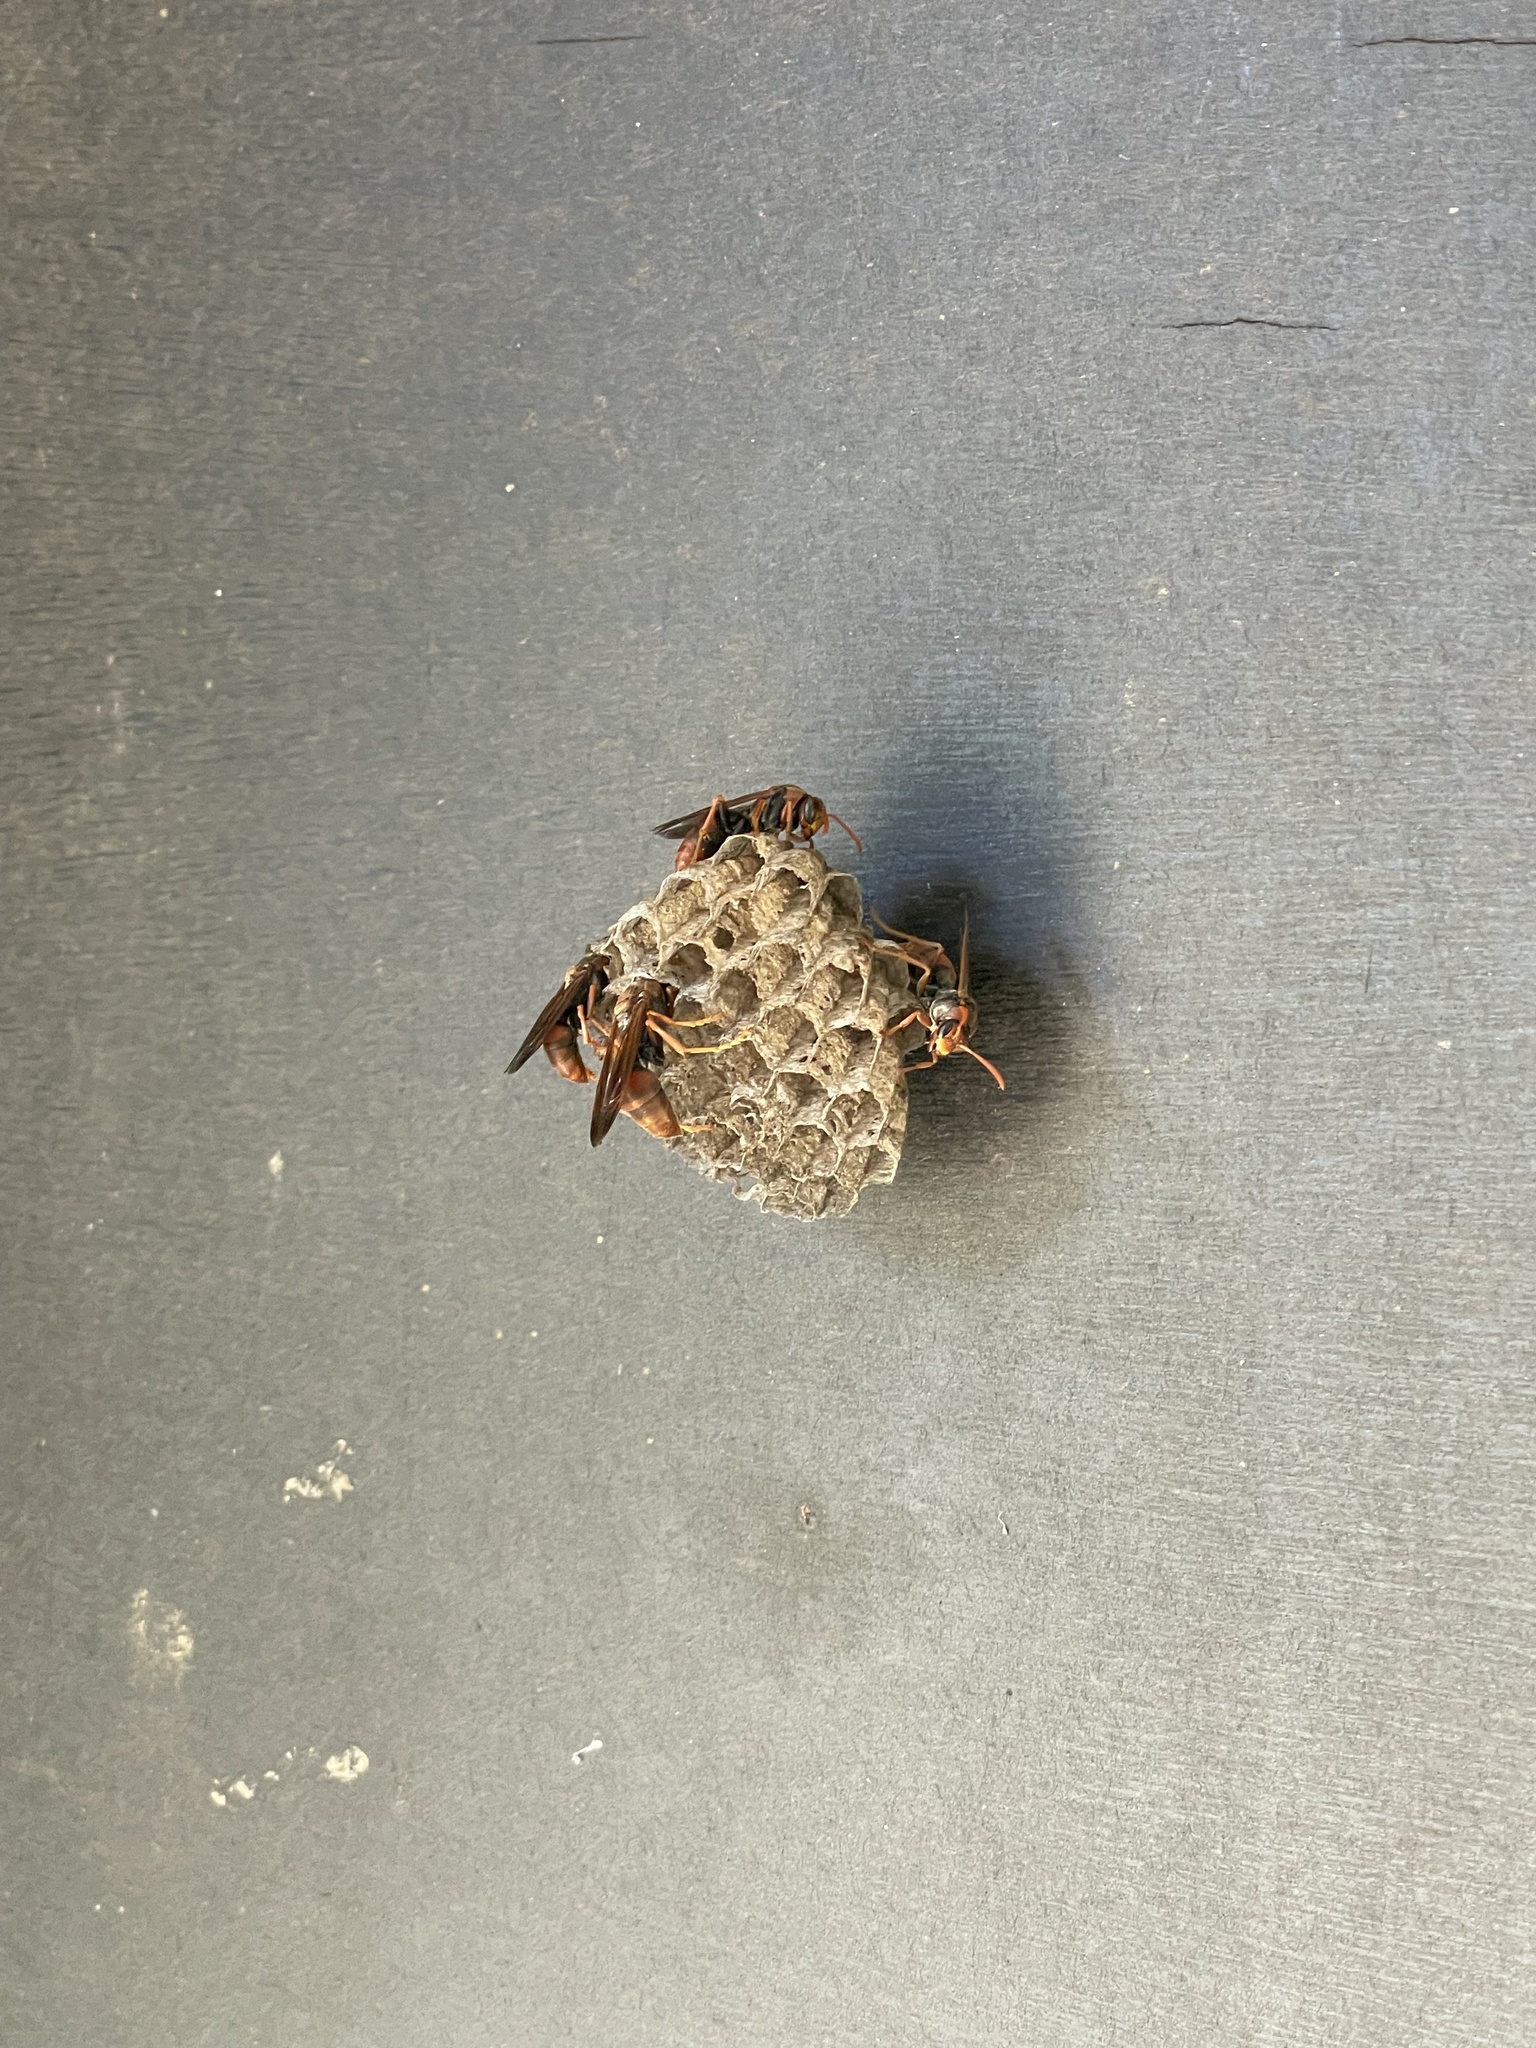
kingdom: Animalia
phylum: Arthropoda
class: Insecta
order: Hymenoptera
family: Eumenidae
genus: Polistes
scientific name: Polistes humilis
